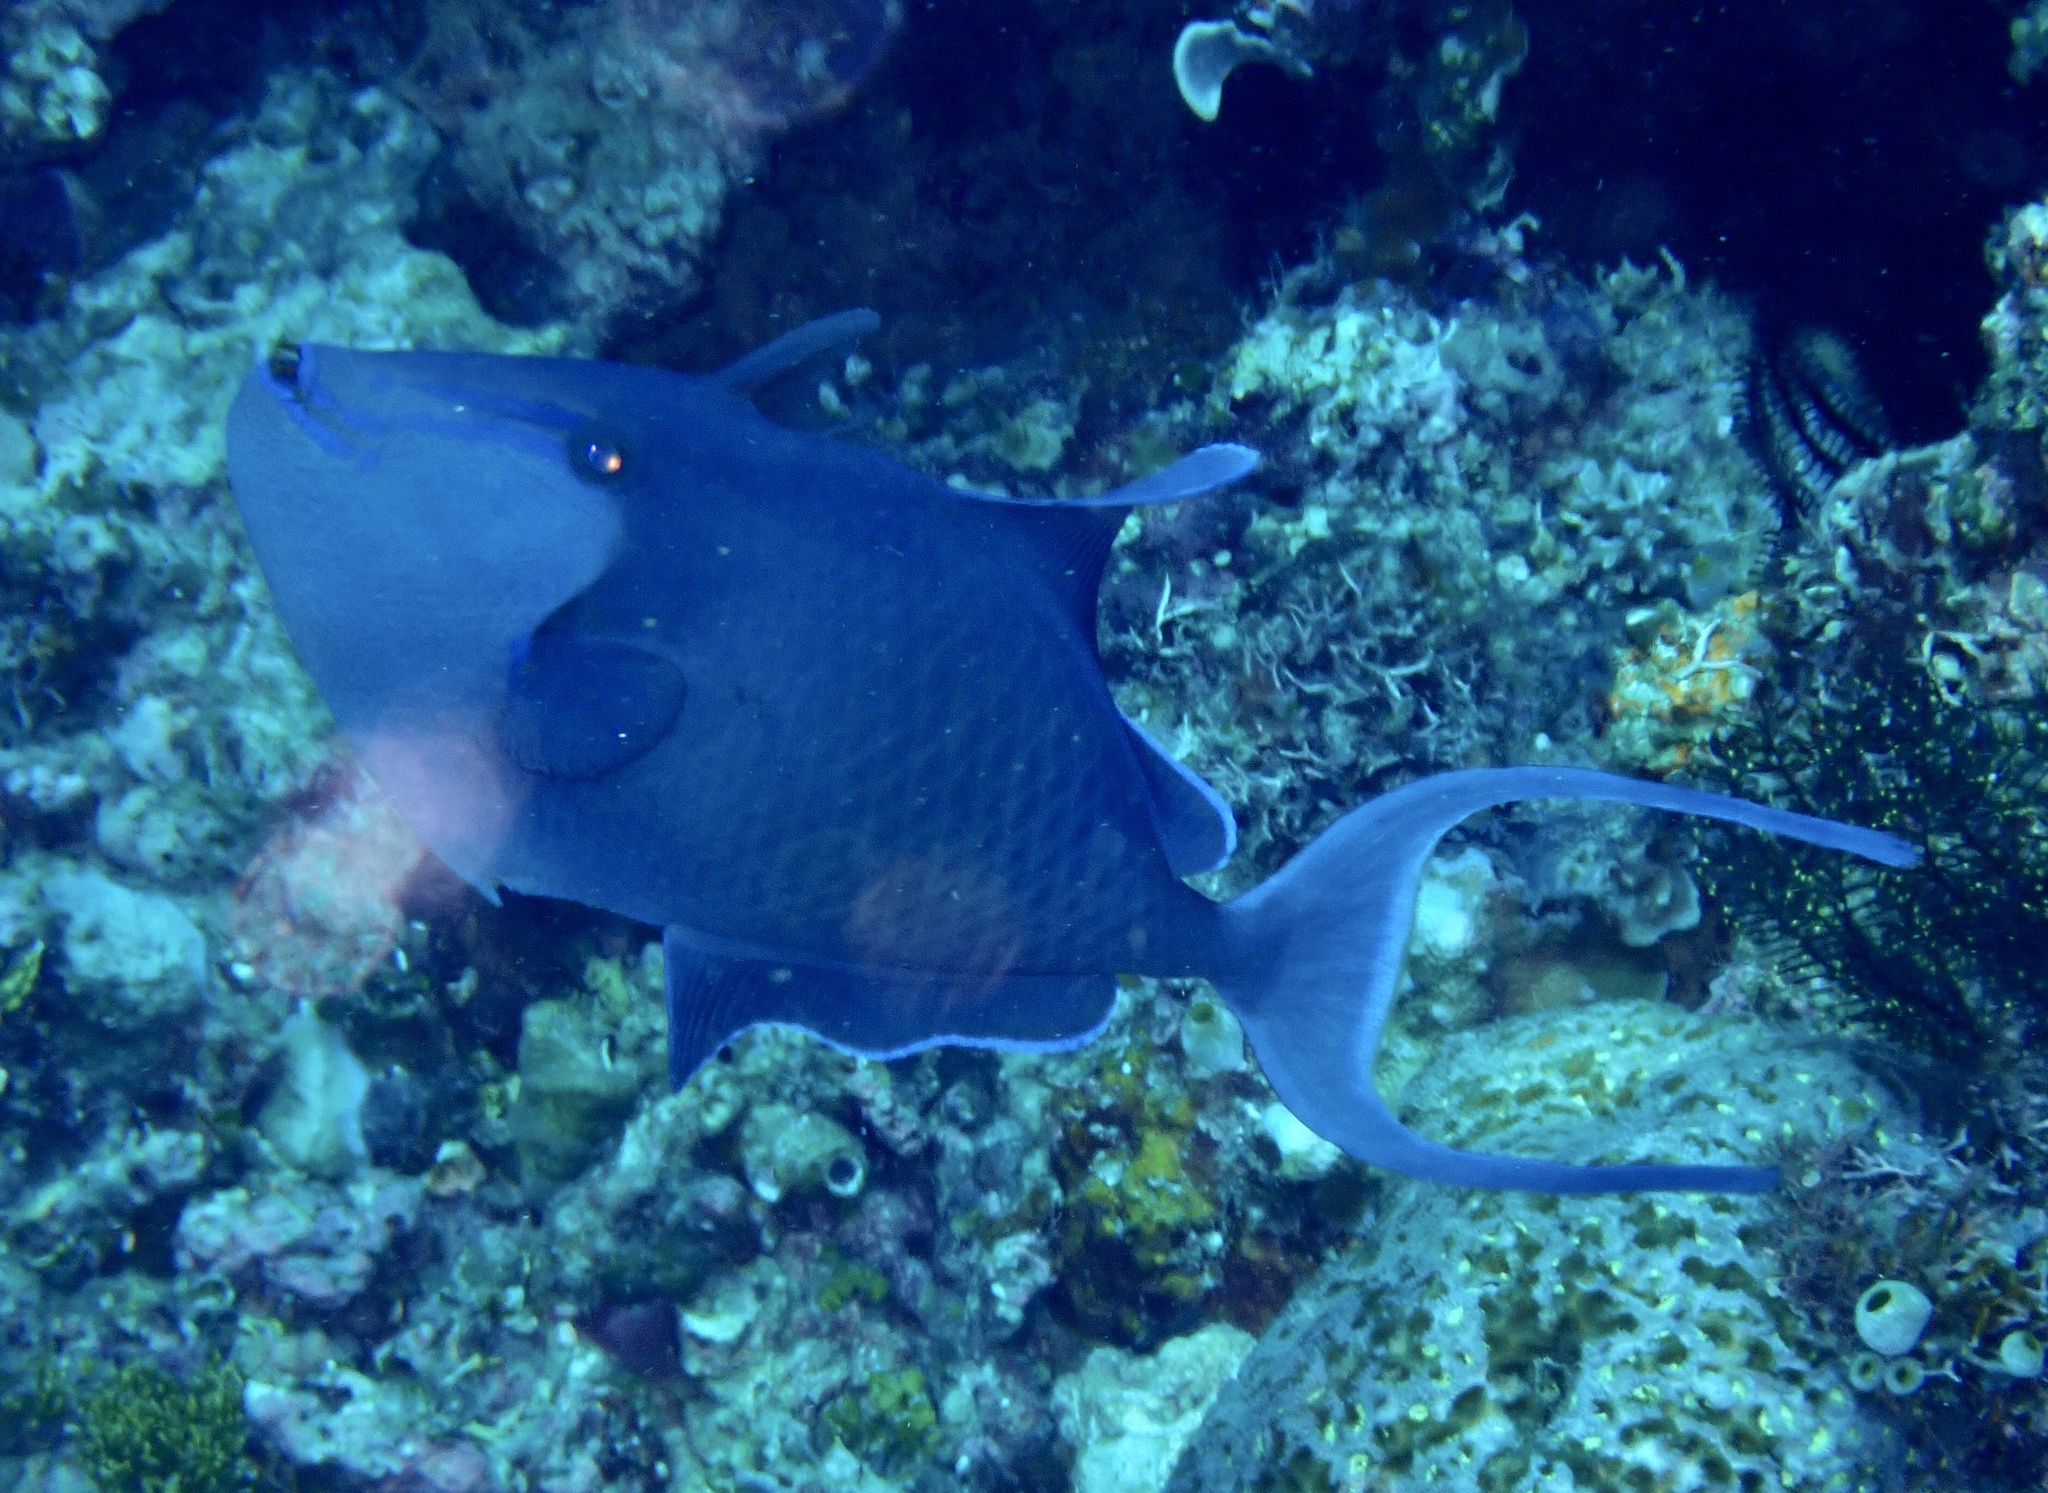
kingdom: Animalia
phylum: Chordata
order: Tetraodontiformes
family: Balistidae
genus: Odonus
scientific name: Odonus niger
